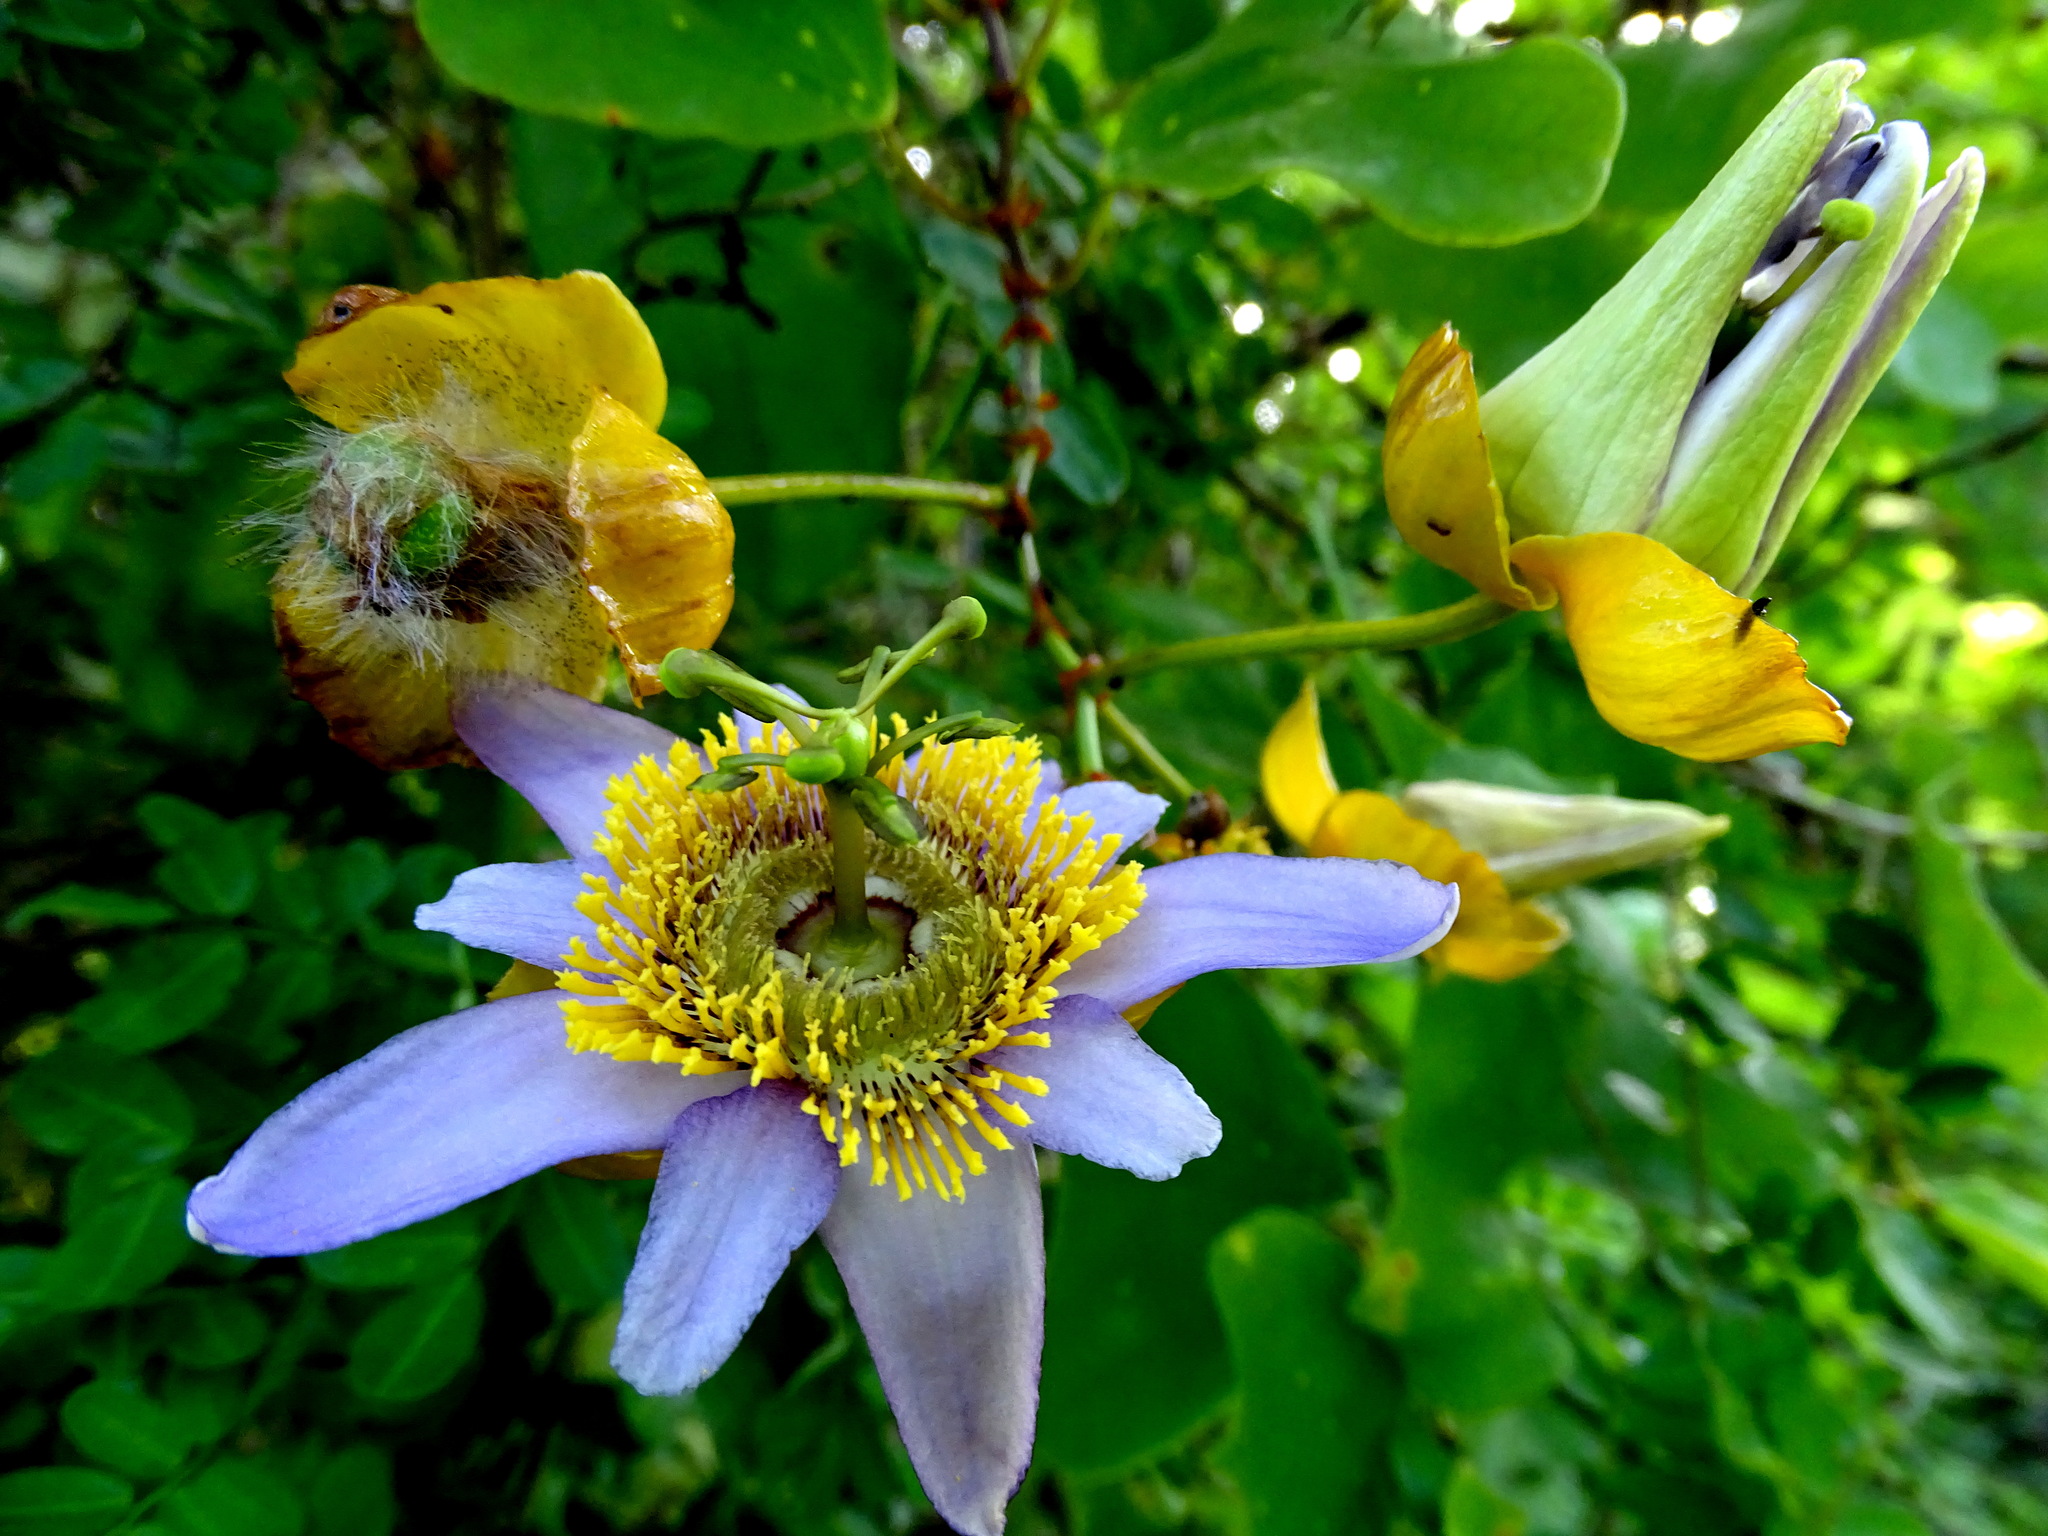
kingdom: Plantae
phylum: Tracheophyta
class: Magnoliopsida
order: Malpighiales
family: Passifloraceae
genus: Passiflora
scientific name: Passiflora bicornis
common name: Wingleaf passionflower
